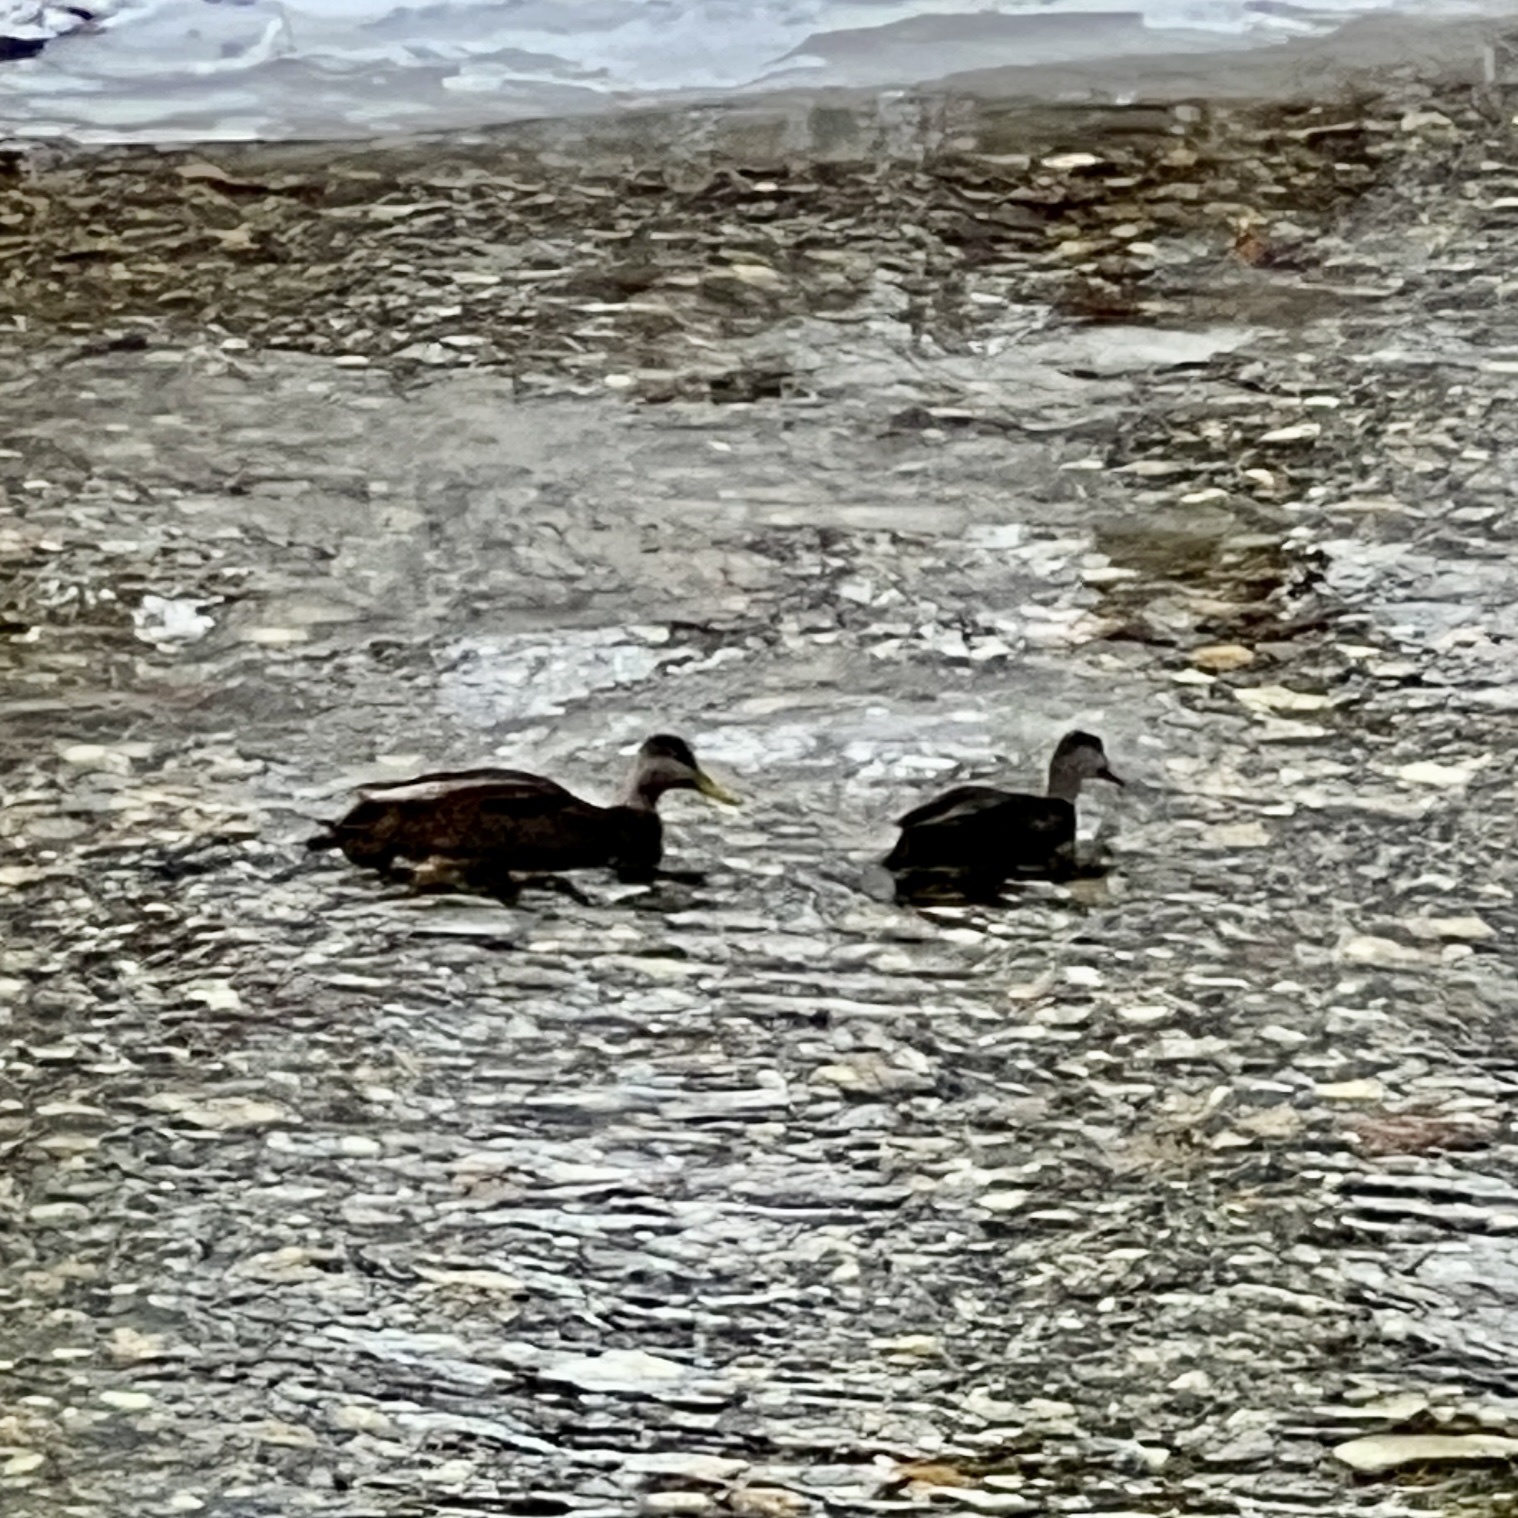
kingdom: Animalia
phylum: Chordata
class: Aves
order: Anseriformes
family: Anatidae
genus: Anas
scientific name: Anas rubripes
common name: American black duck
